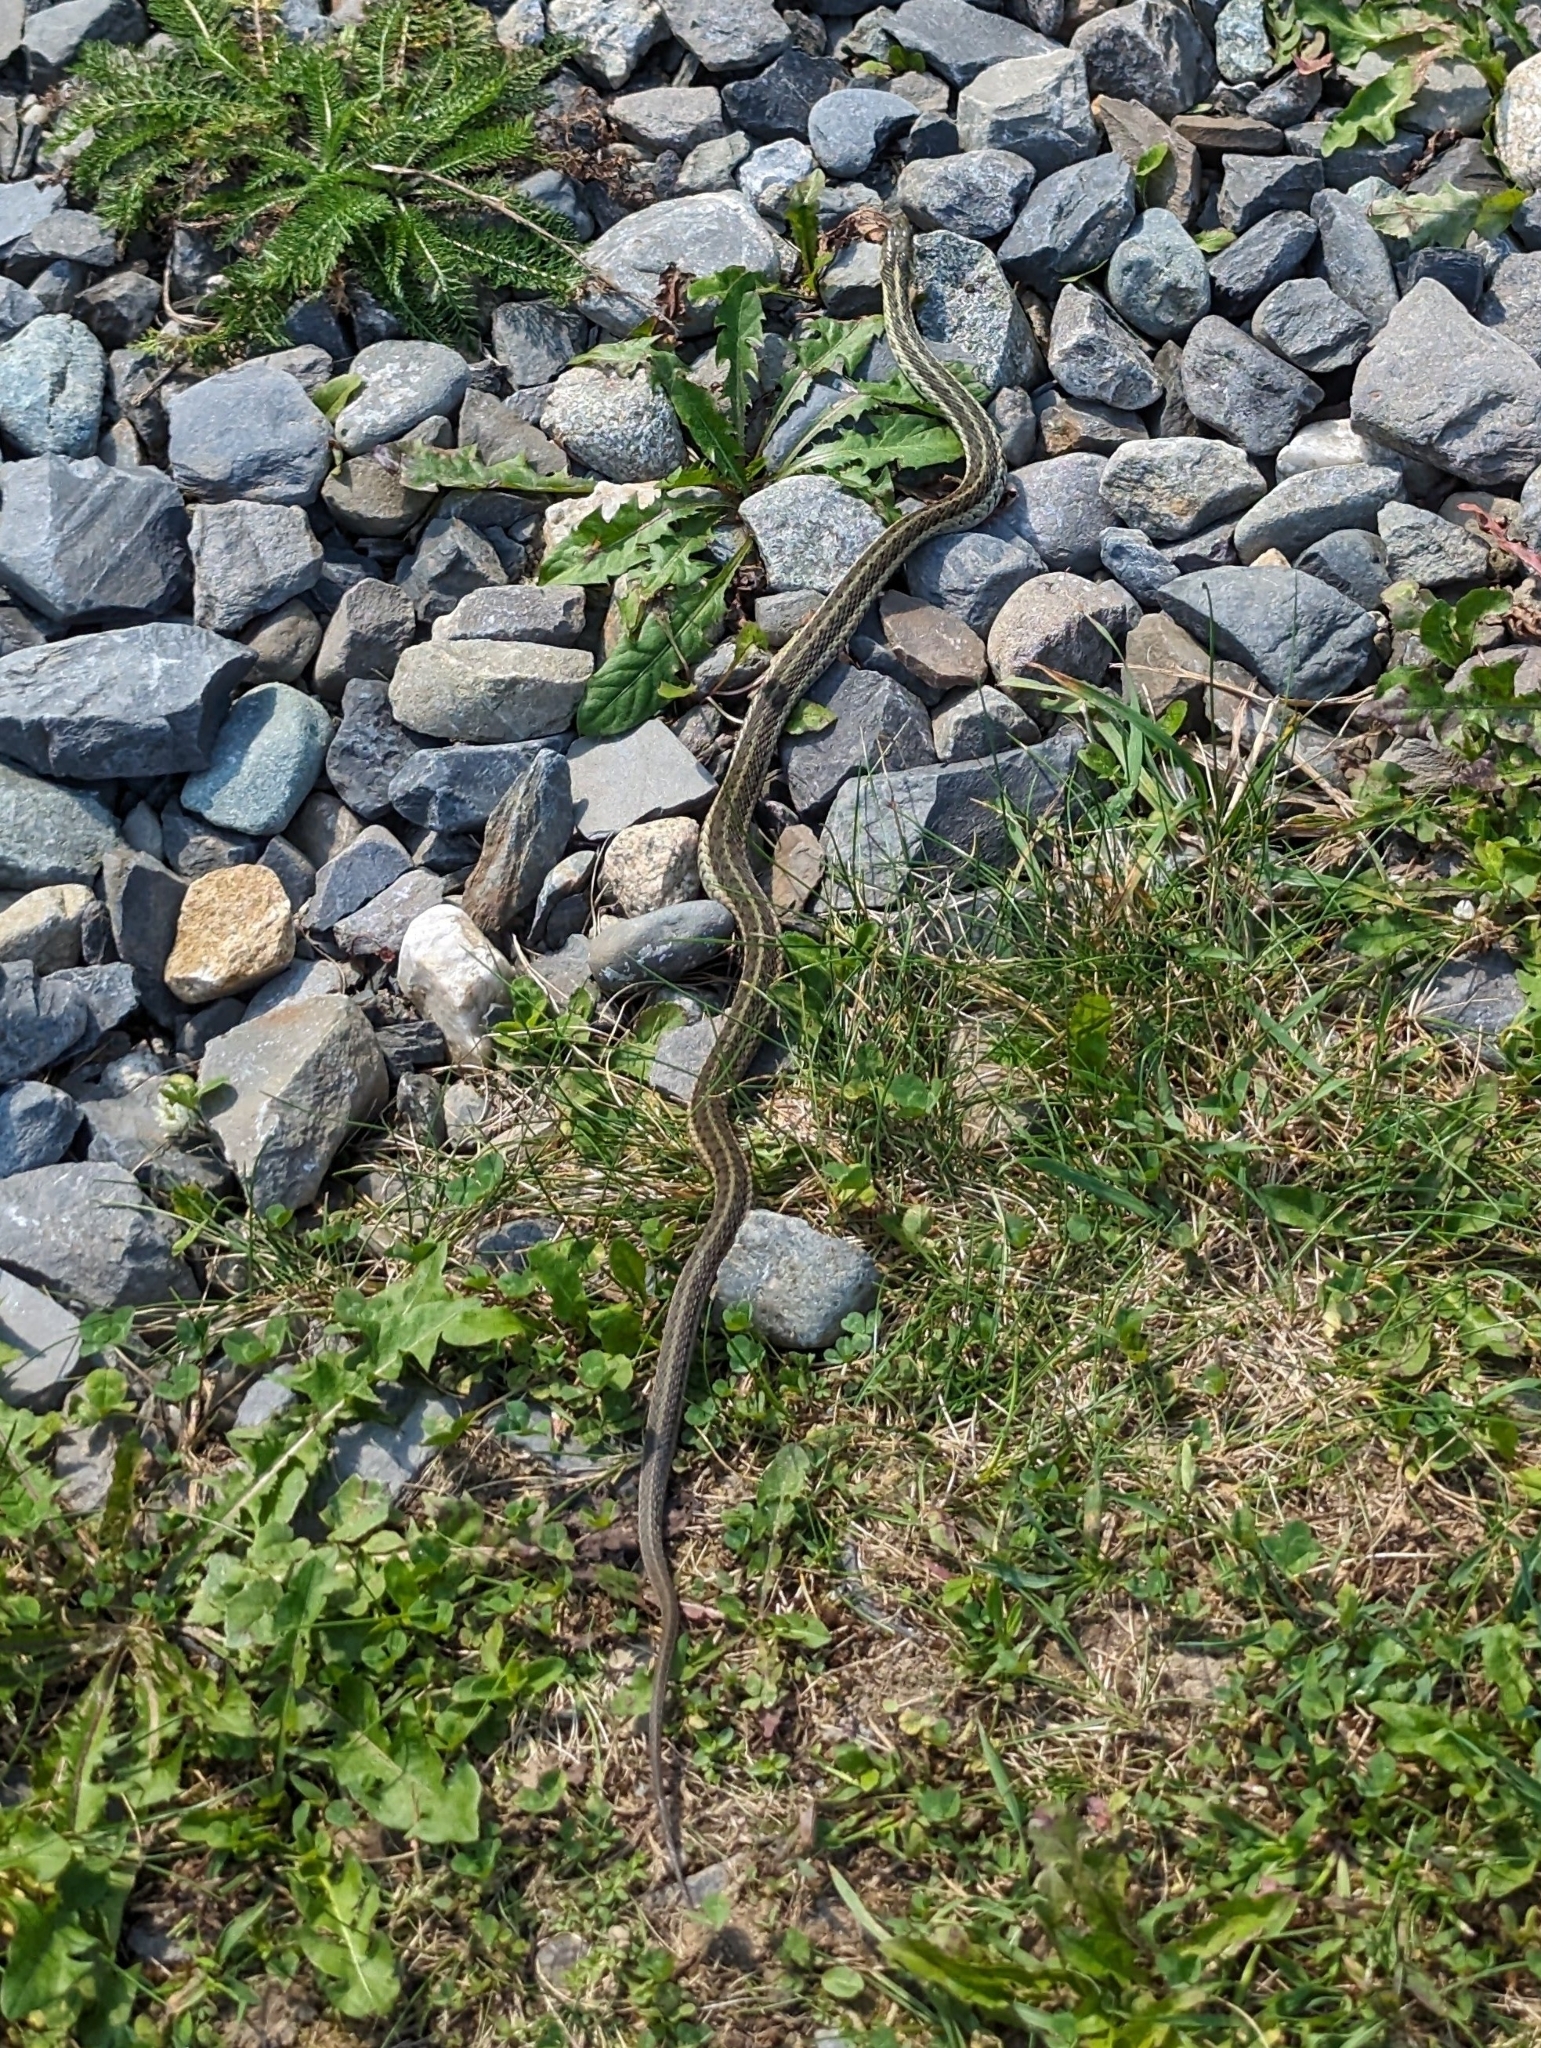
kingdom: Animalia
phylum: Chordata
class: Squamata
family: Colubridae
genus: Thamnophis
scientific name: Thamnophis sirtalis
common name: Common garter snake
